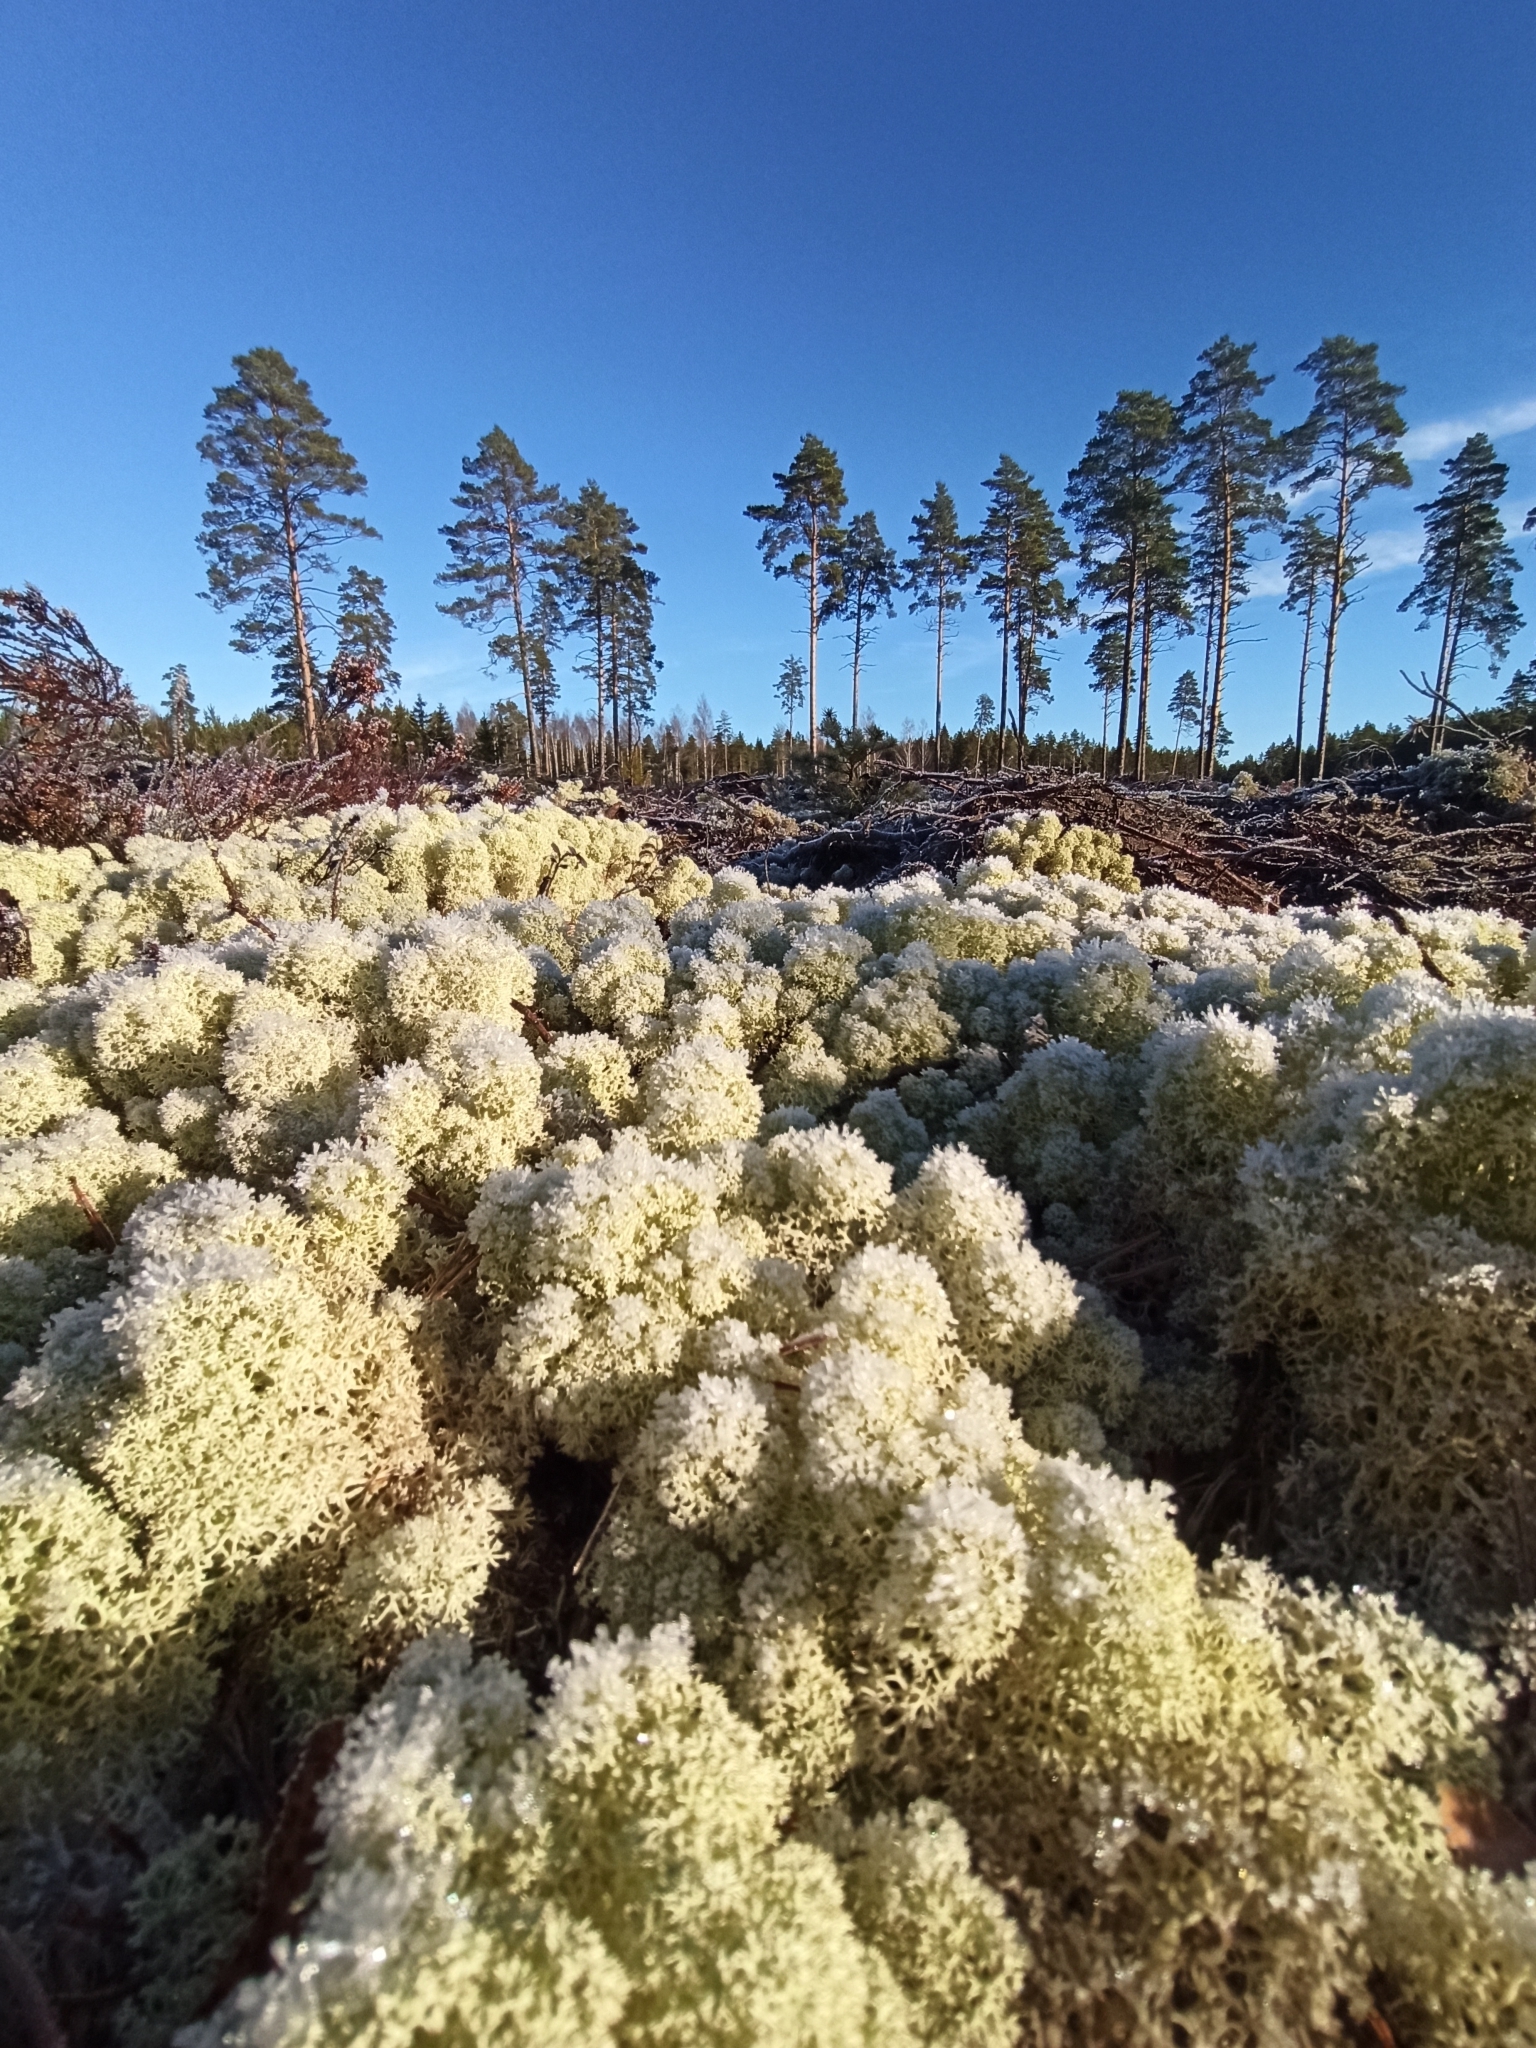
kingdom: Fungi
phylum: Ascomycota
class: Lecanoromycetes
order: Lecanorales
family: Cladoniaceae
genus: Cladonia
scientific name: Cladonia stellaris
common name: Star-tipped reindeer lichen
